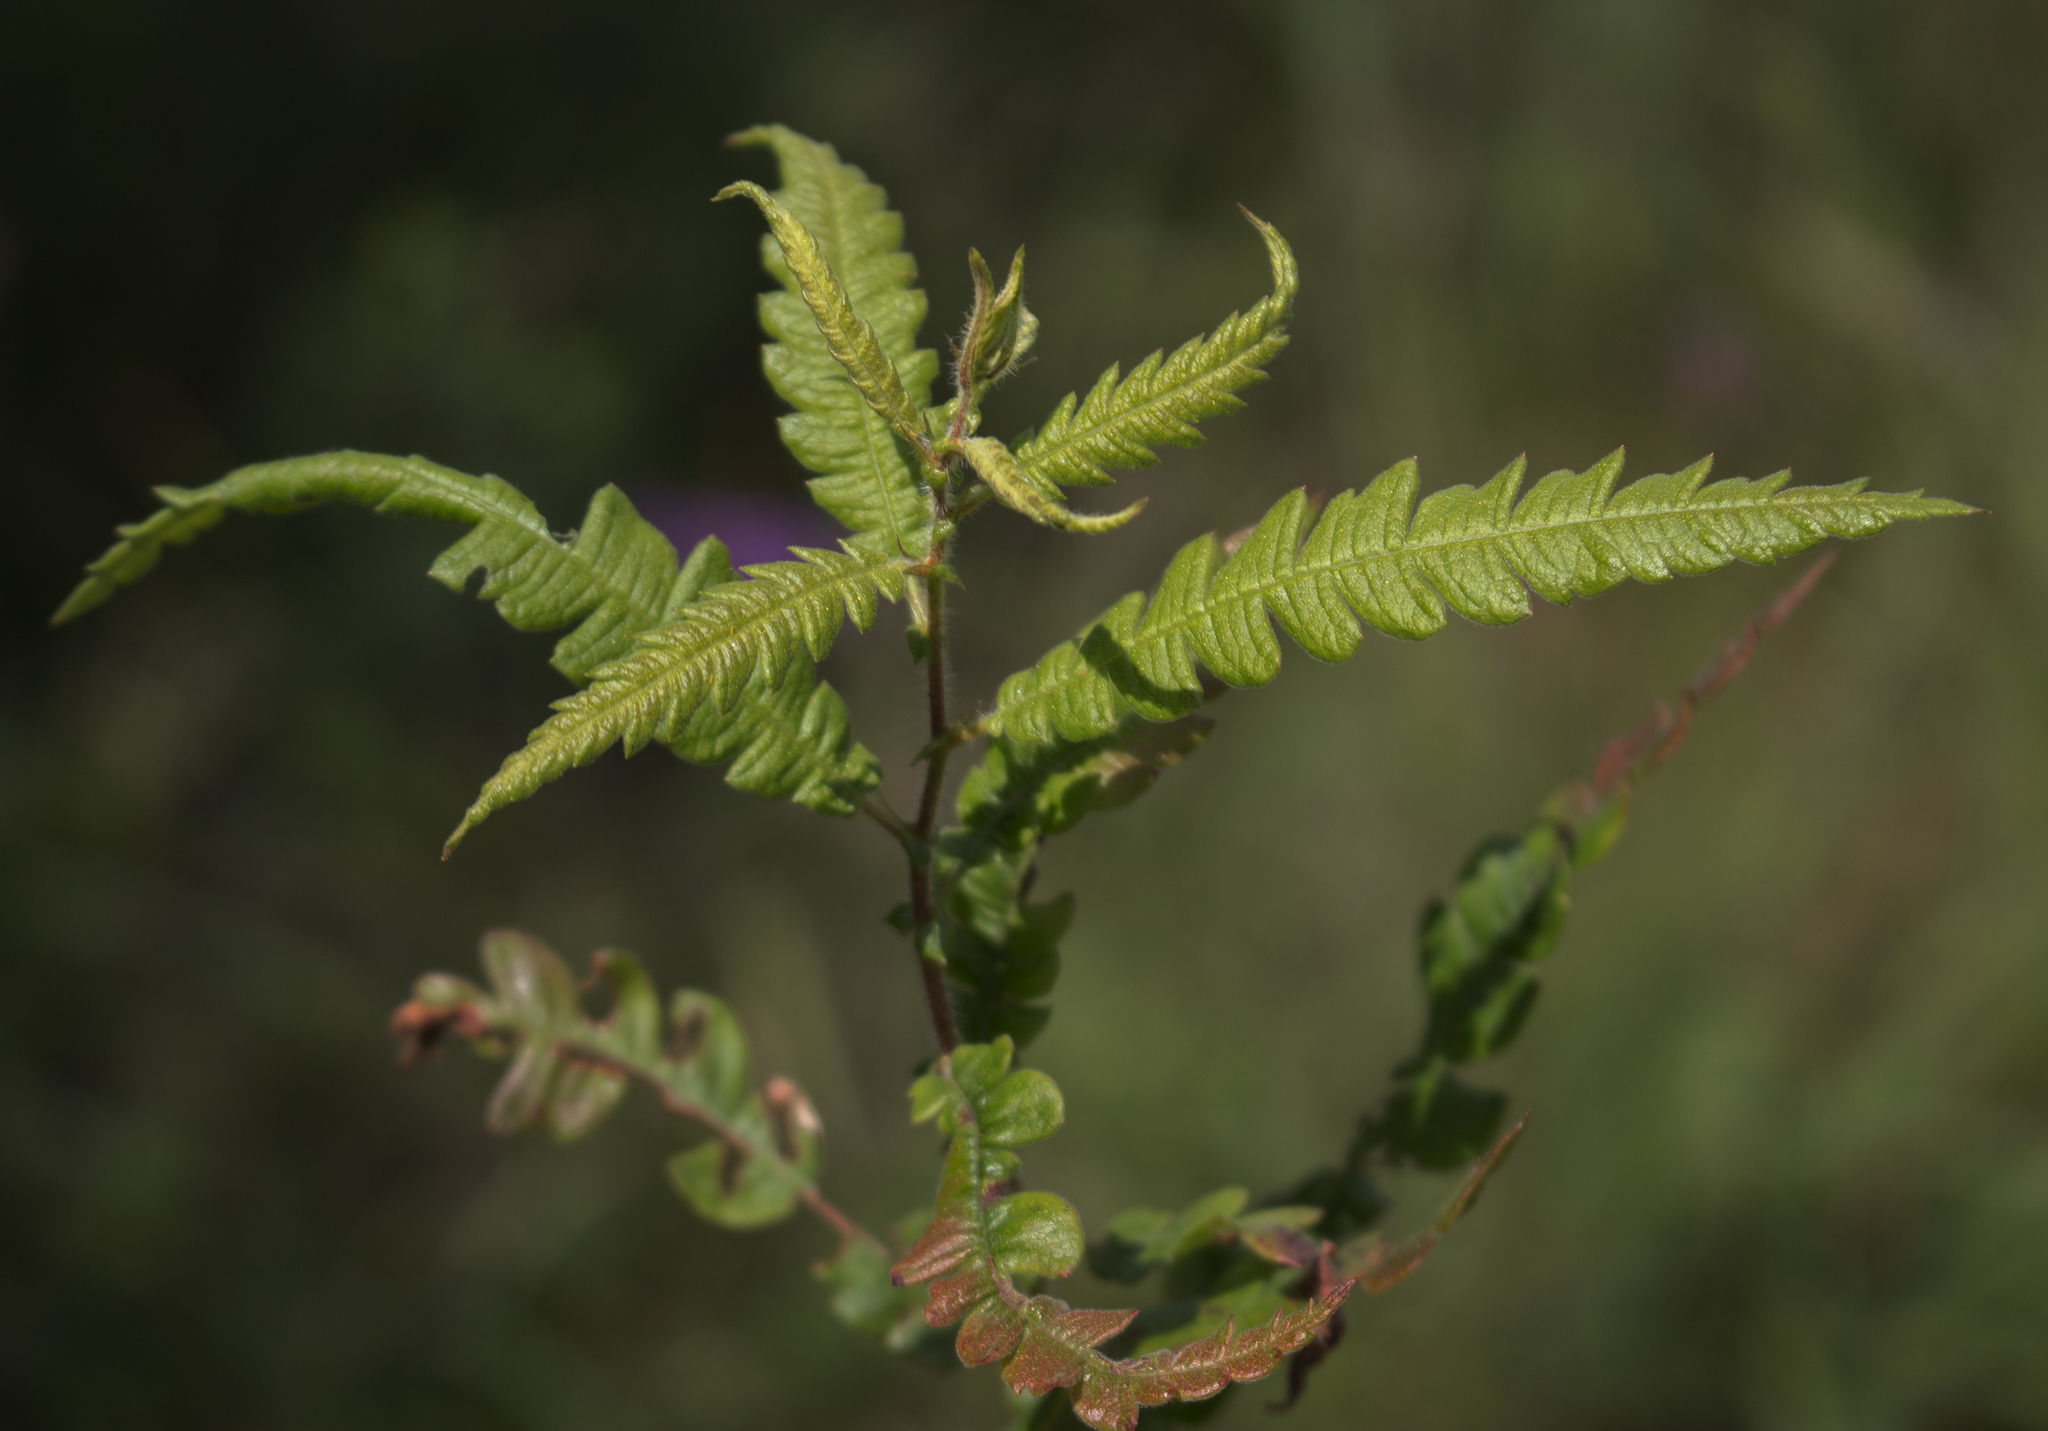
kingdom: Plantae
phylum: Tracheophyta
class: Magnoliopsida
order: Fagales
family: Myricaceae
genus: Comptonia
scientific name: Comptonia peregrina
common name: Sweet-fern
